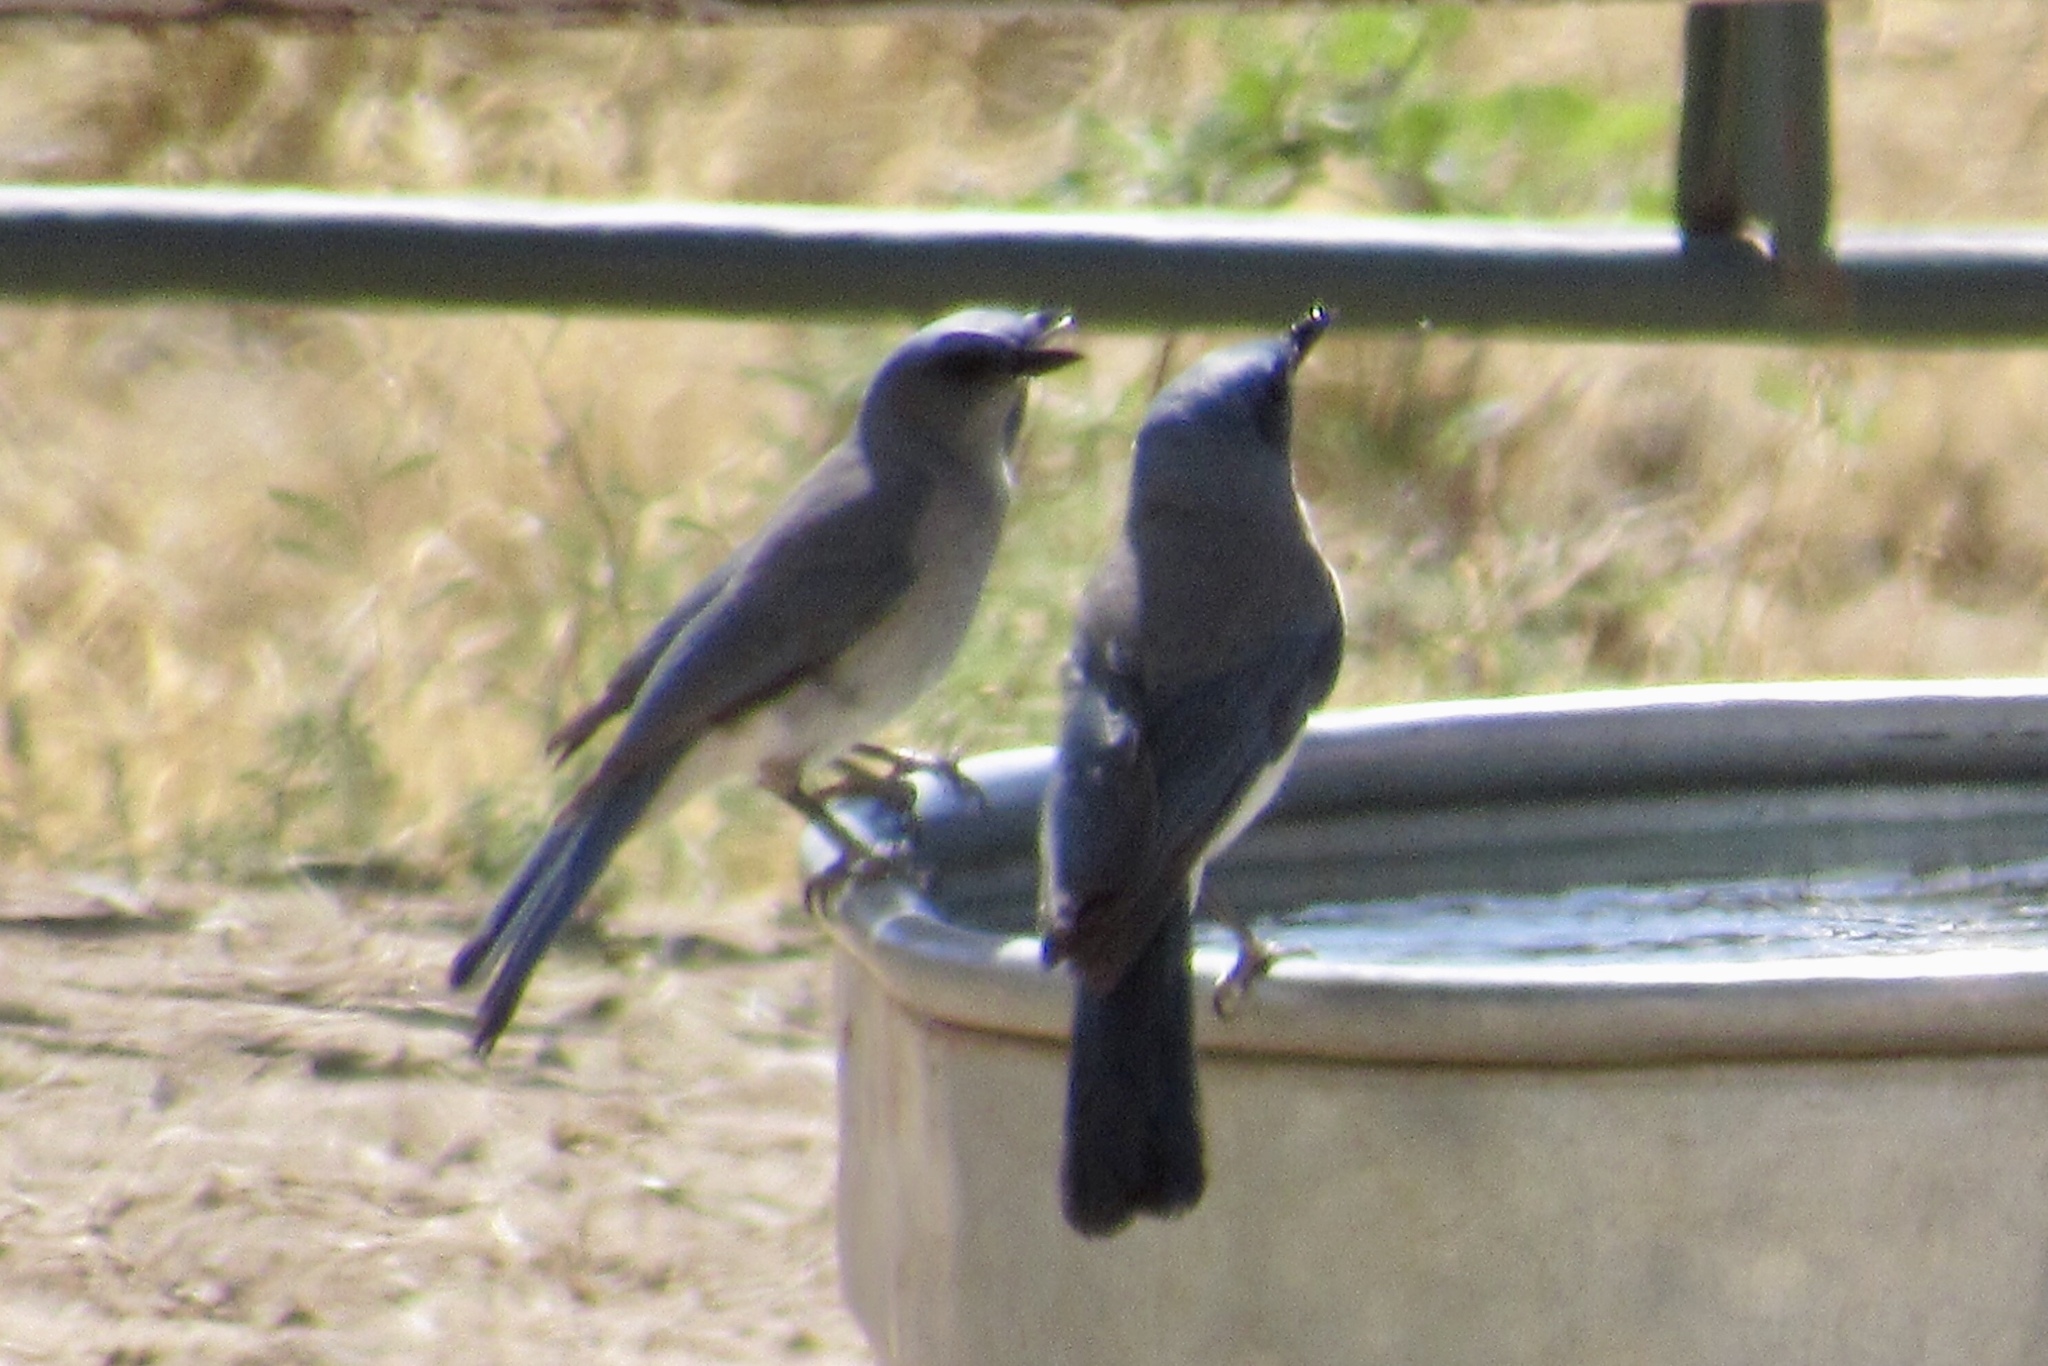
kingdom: Animalia
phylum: Chordata
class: Aves
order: Passeriformes
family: Corvidae
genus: Aphelocoma
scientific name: Aphelocoma wollweberi
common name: Mexican jay
